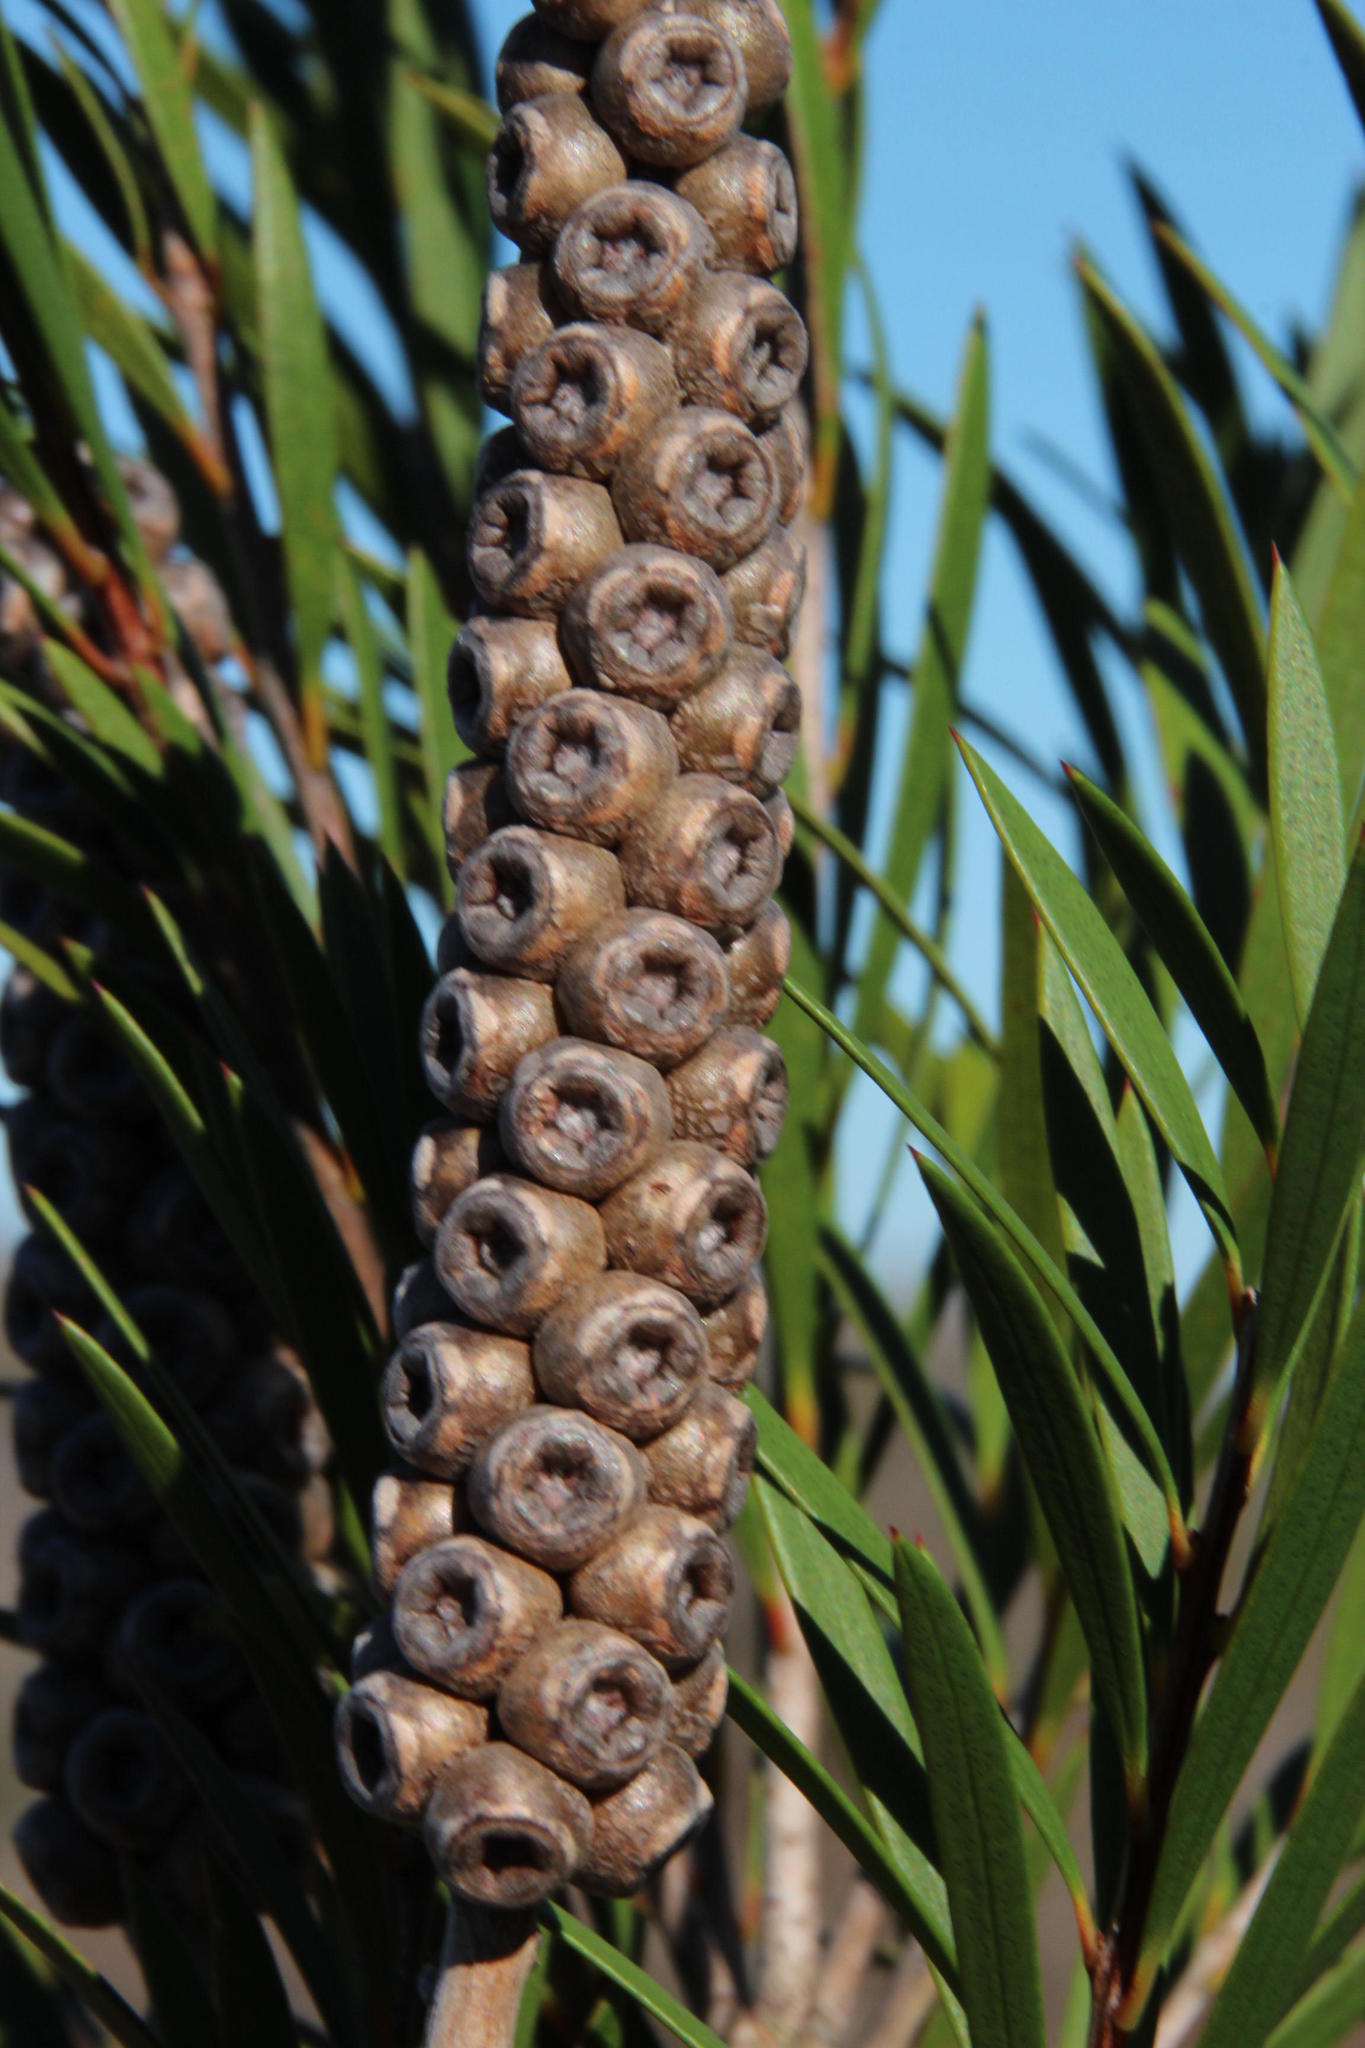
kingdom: Plantae
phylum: Tracheophyta
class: Magnoliopsida
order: Myrtales
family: Myrtaceae
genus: Callistemon
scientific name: Callistemon subulatus
